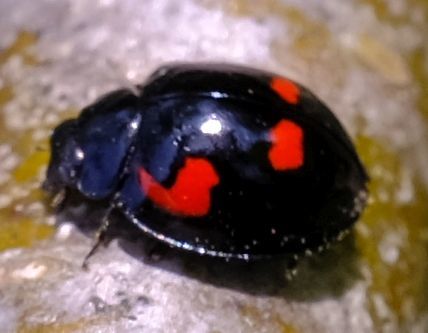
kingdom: Animalia
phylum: Arthropoda
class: Insecta
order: Coleoptera
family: Coccinellidae
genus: Brumus
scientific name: Brumus quadripustulatus
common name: Ladybird beetle
